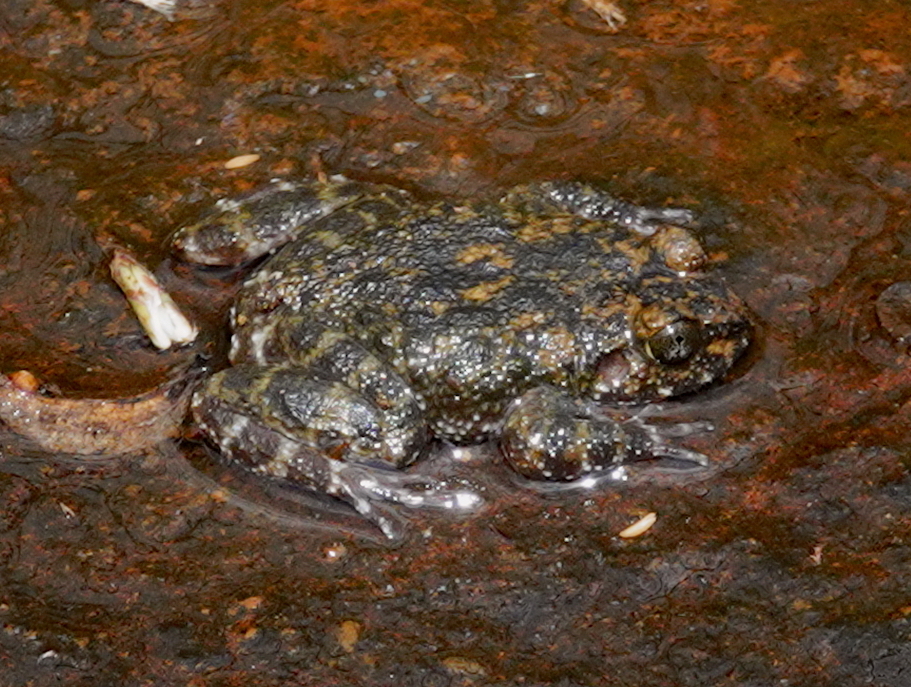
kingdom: Animalia
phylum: Chordata
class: Amphibia
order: Anura
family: Dicroglossidae
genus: Nannophrys
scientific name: Nannophrys marmorata
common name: Kirtisinghe's rock frog
